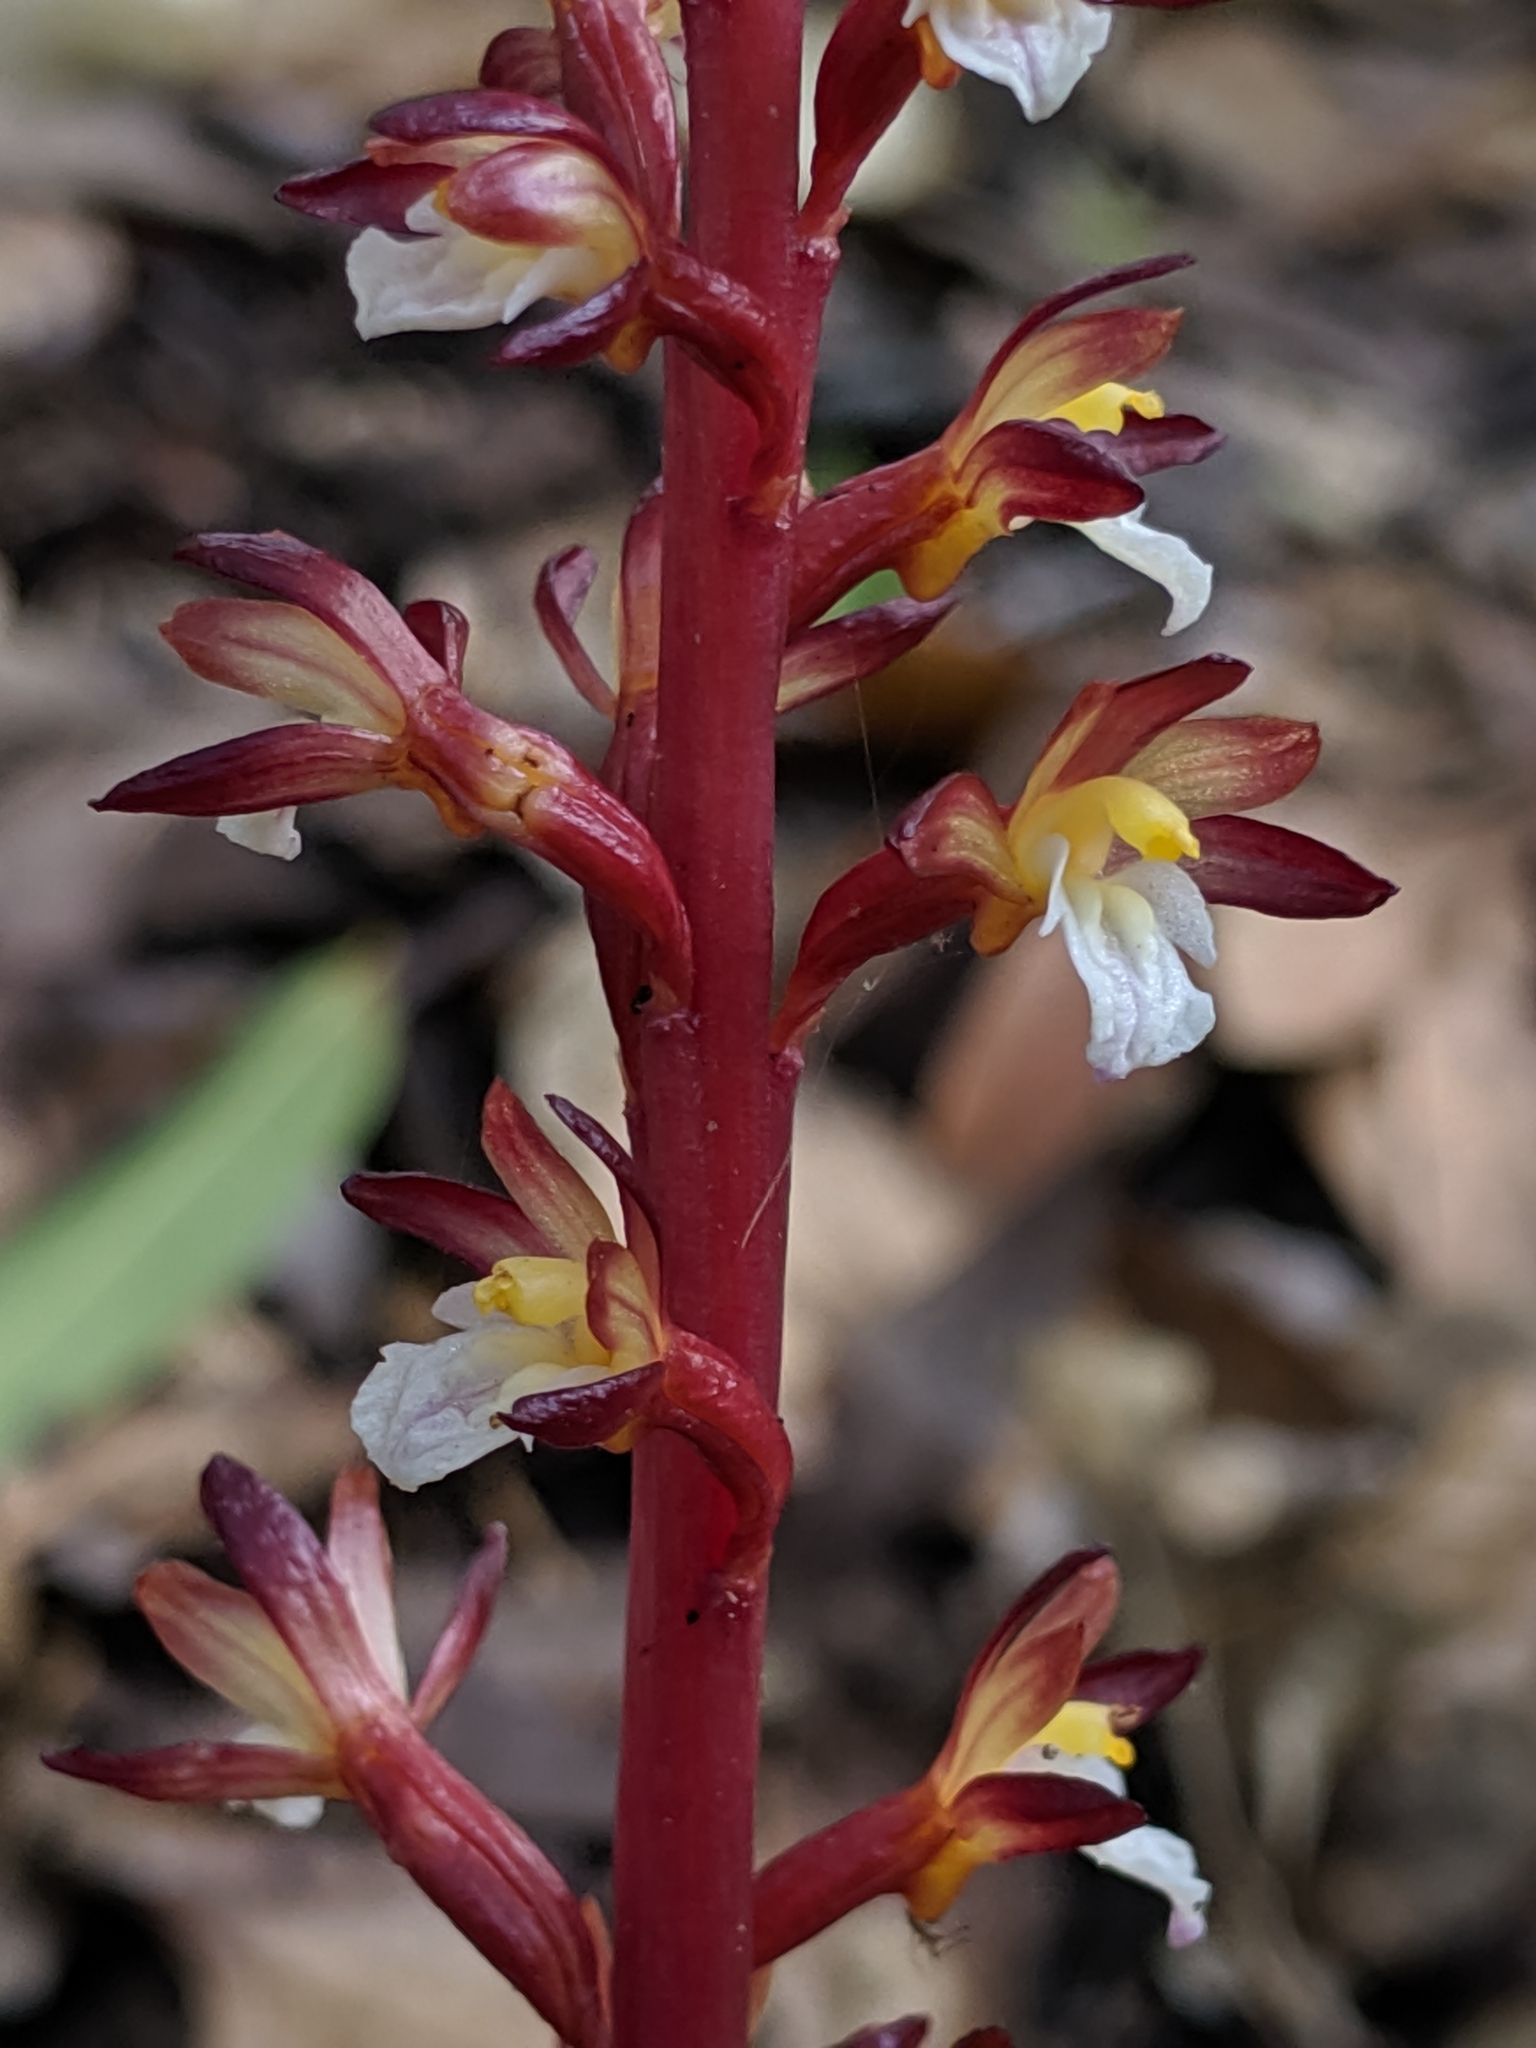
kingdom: Plantae
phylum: Tracheophyta
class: Liliopsida
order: Asparagales
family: Orchidaceae
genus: Corallorhiza
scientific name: Corallorhiza maculata
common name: Spotted coralroot
